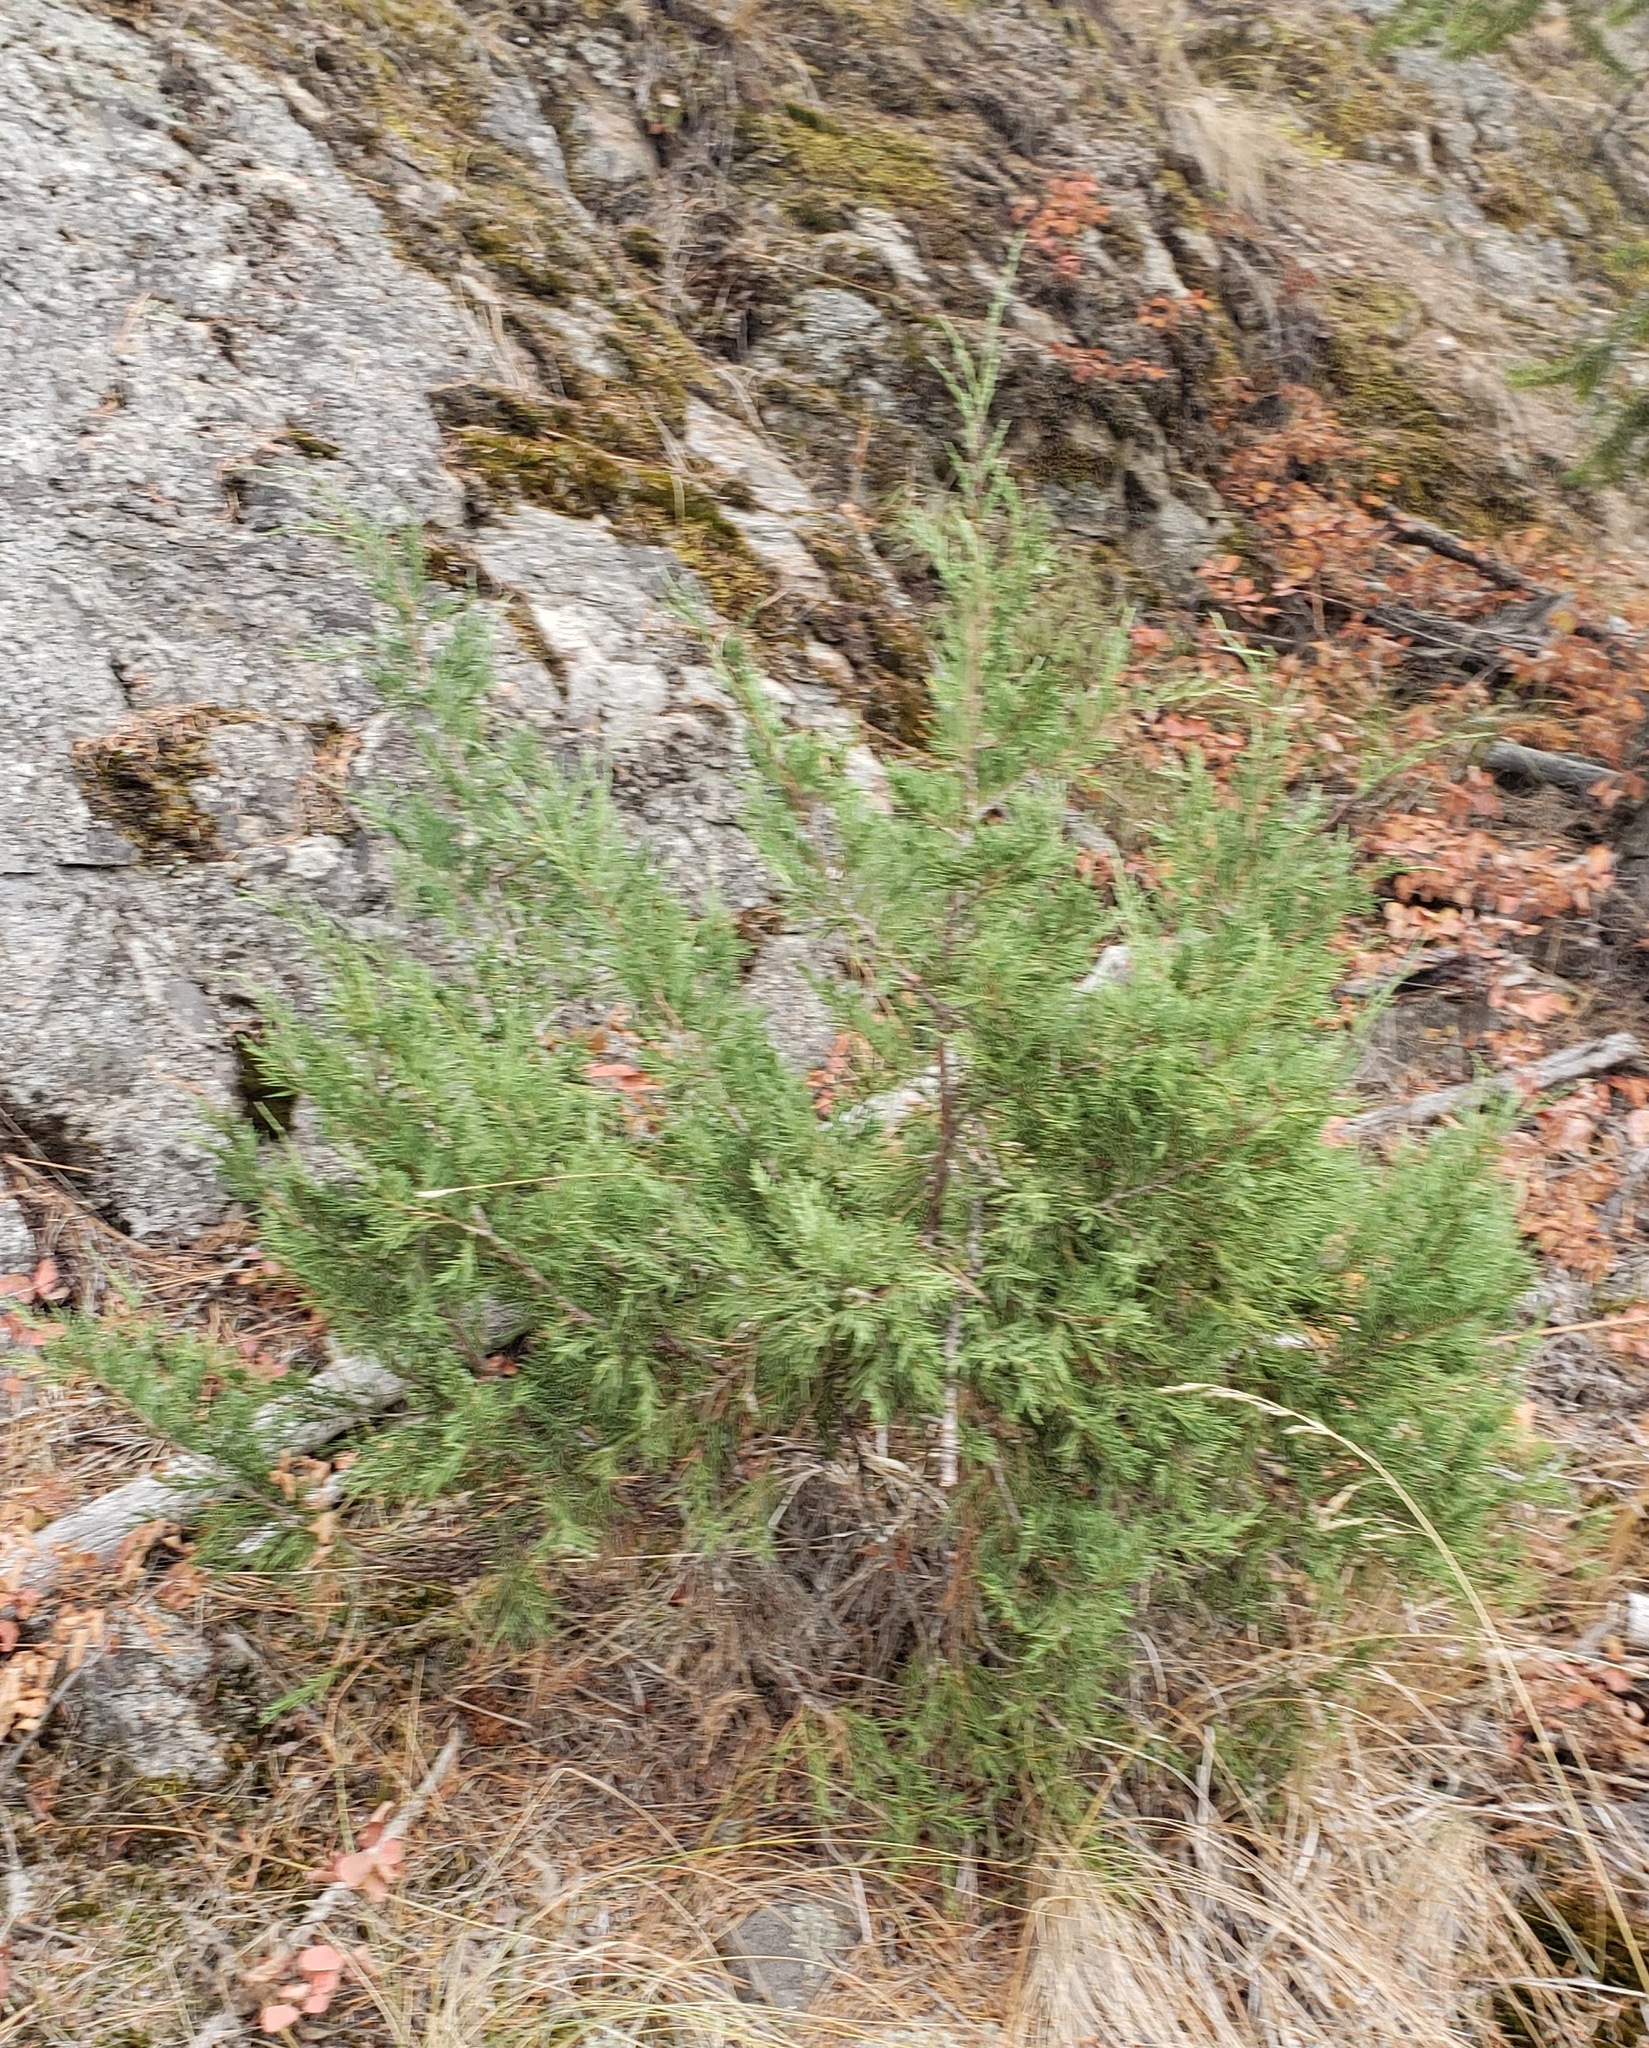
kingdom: Plantae
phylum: Tracheophyta
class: Pinopsida
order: Pinales
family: Cupressaceae
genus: Juniperus
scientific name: Juniperus scopulorum
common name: Rocky mountain juniper
